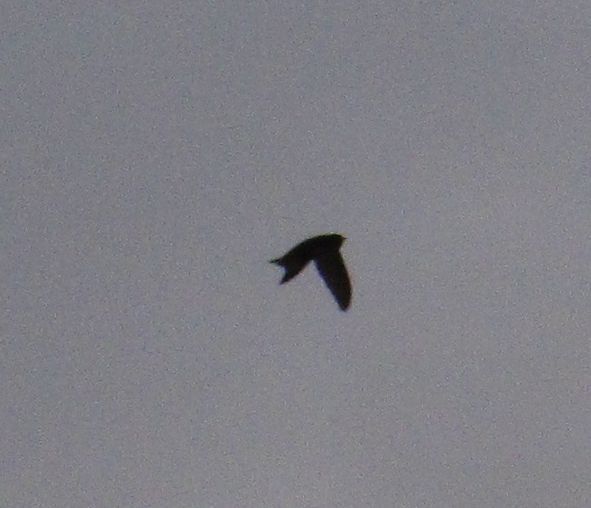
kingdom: Animalia
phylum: Chordata
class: Aves
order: Passeriformes
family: Hirundinidae
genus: Delichon
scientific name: Delichon urbicum
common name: Common house martin
